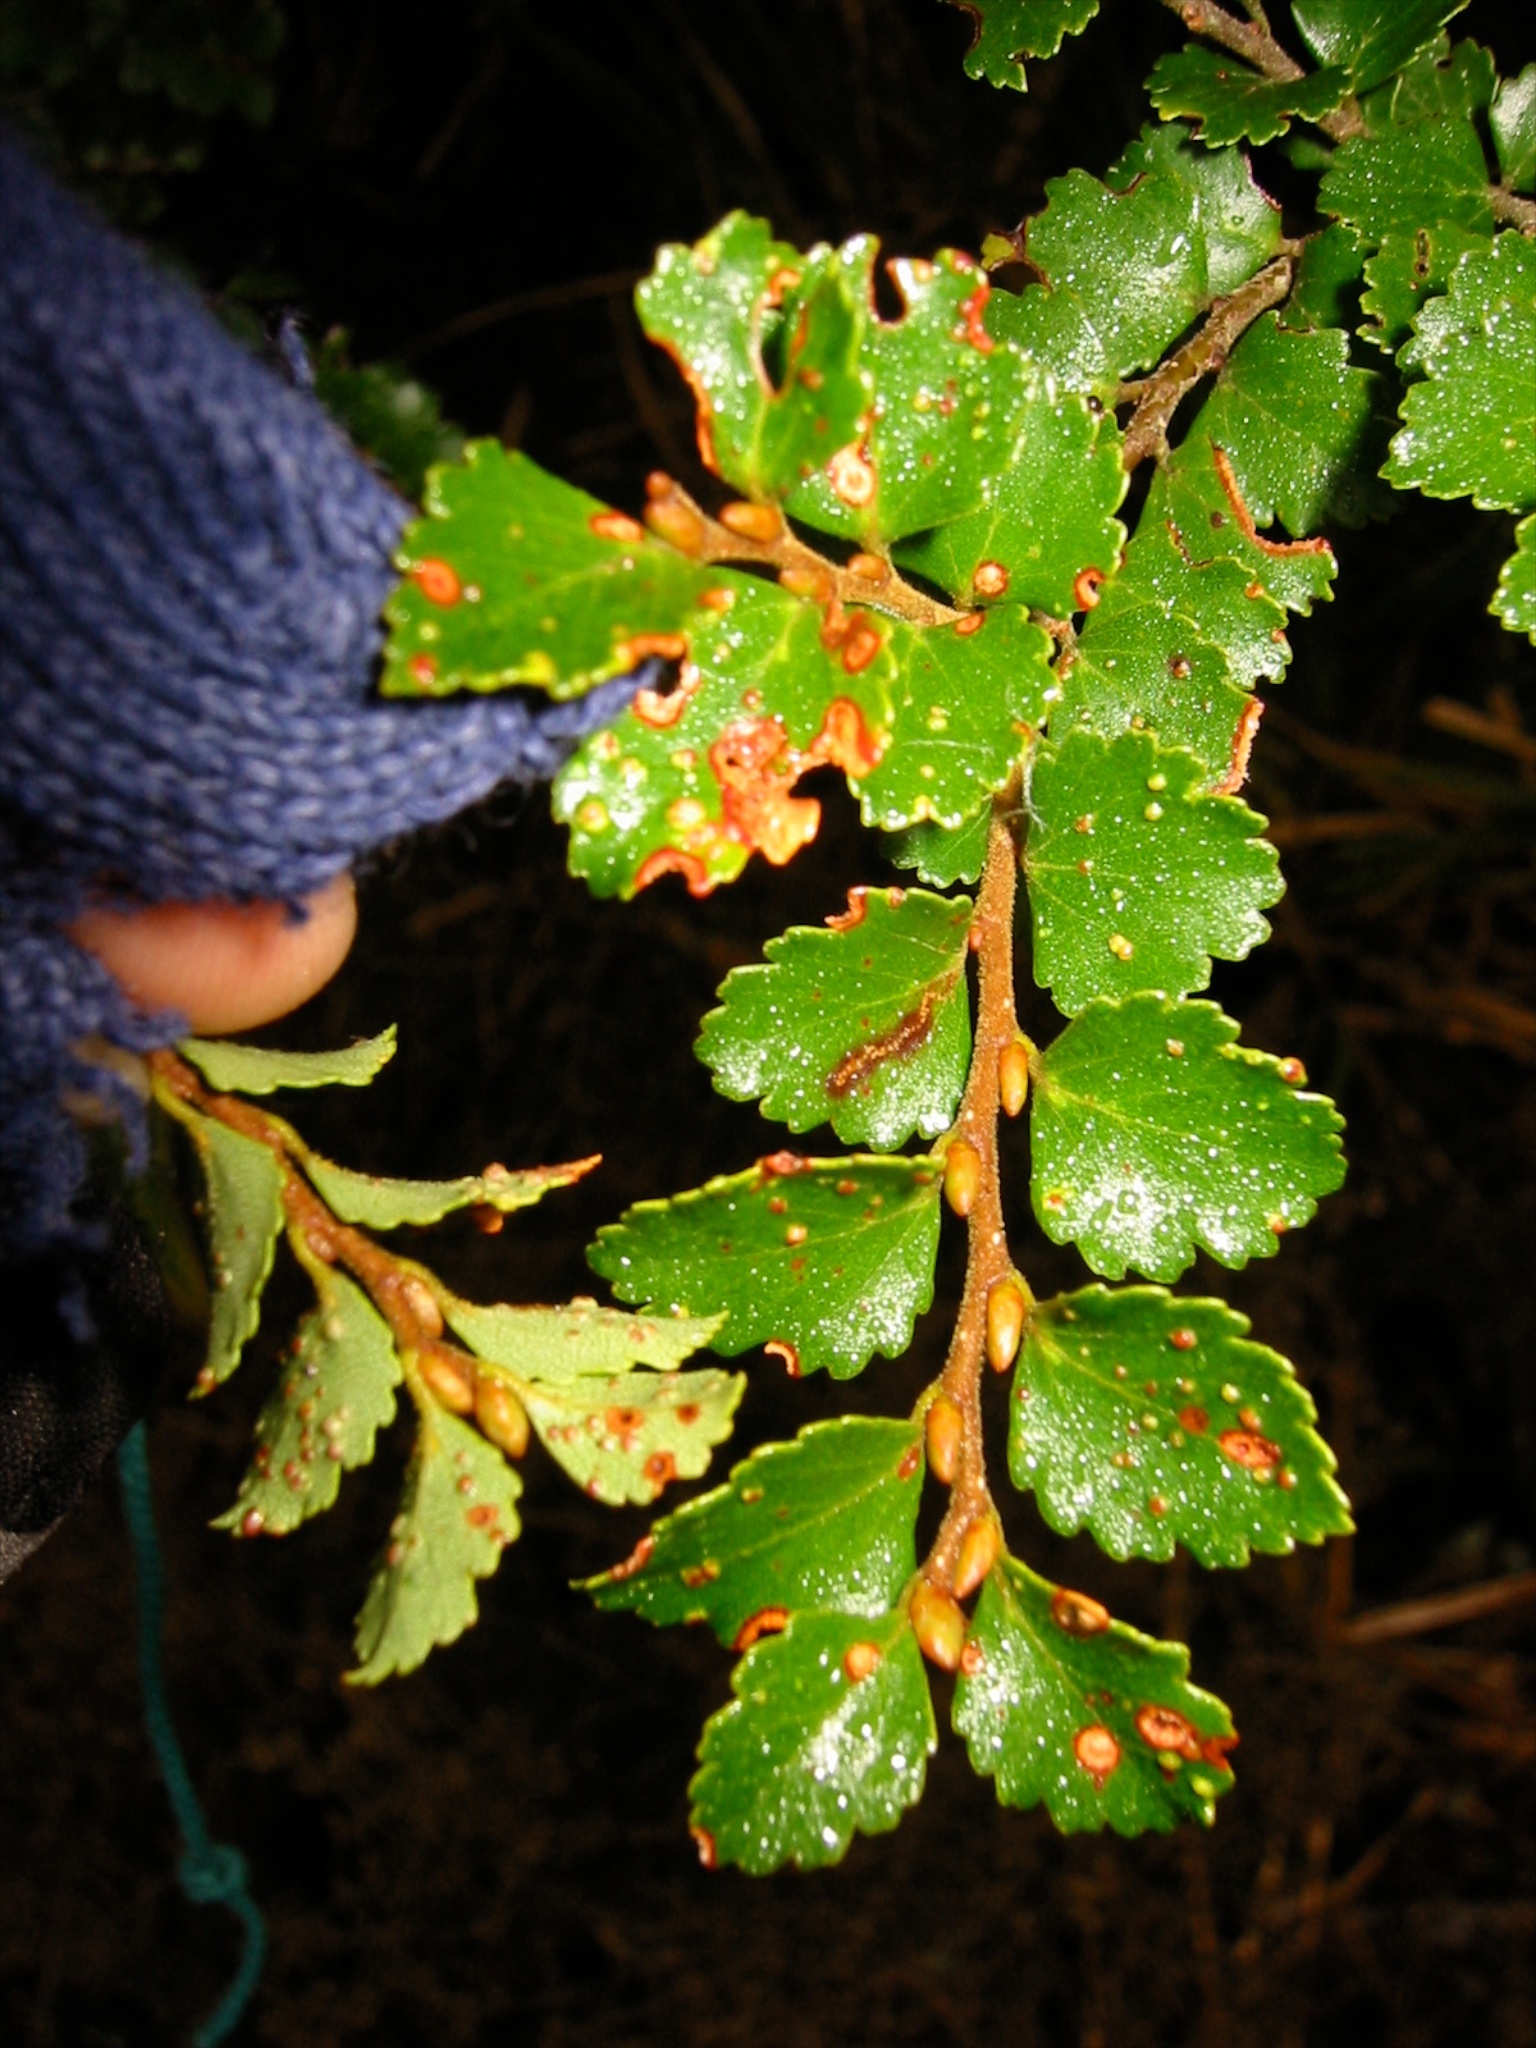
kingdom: Plantae
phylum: Tracheophyta
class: Magnoliopsida
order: Fagales
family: Nothofagaceae
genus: Nothofagus
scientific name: Nothofagus menziesii
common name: Silver beech
